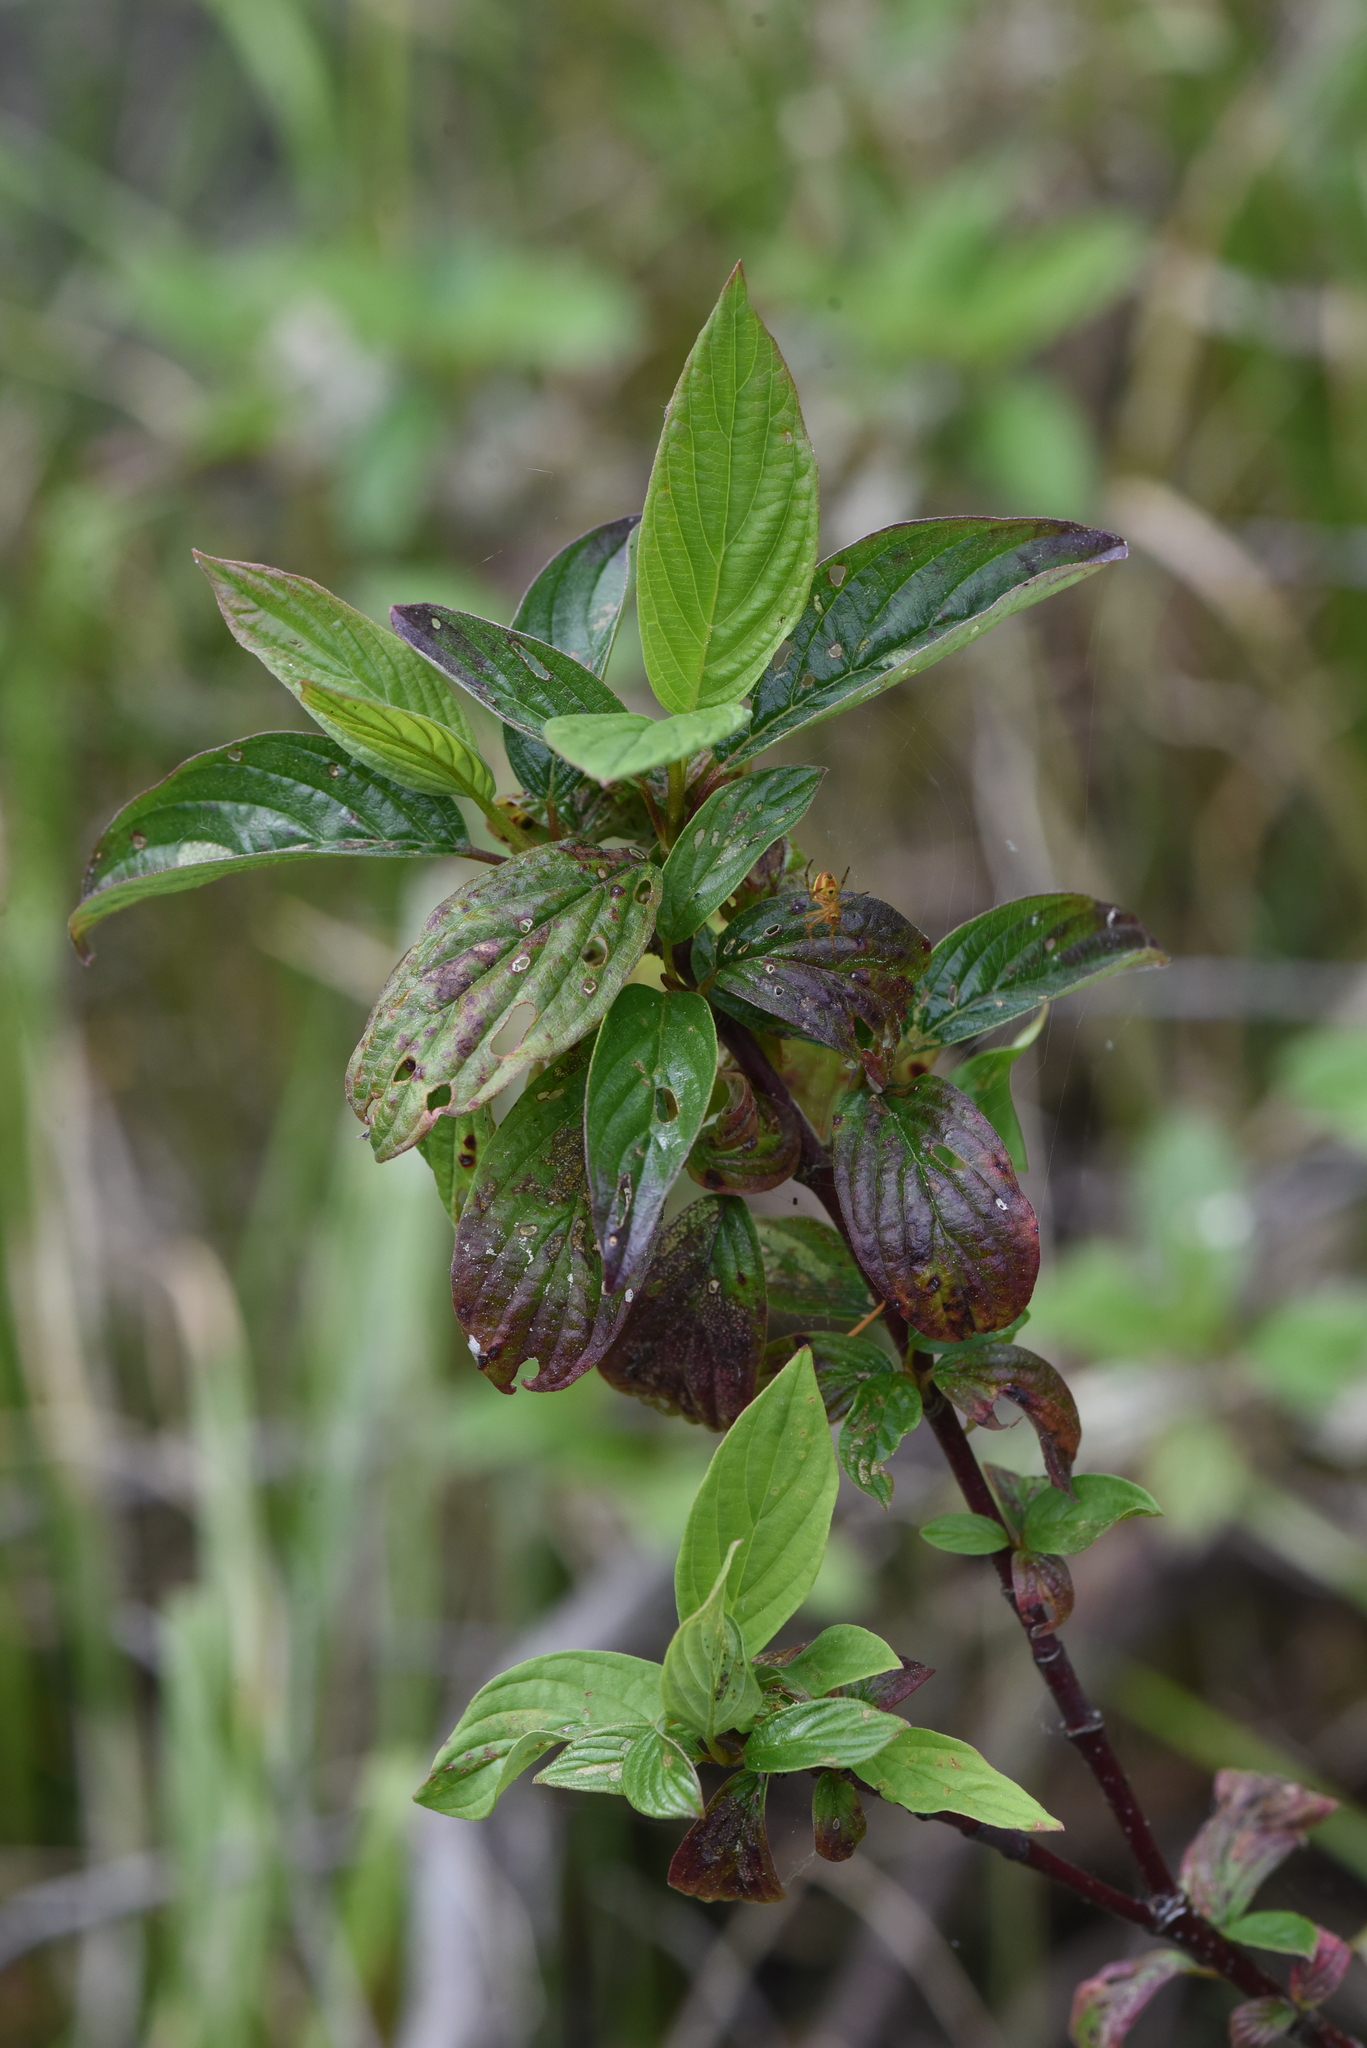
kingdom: Plantae
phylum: Tracheophyta
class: Magnoliopsida
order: Dipsacales
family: Caprifoliaceae
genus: Lonicera
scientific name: Lonicera involucrata
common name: Californian honeysuckle
